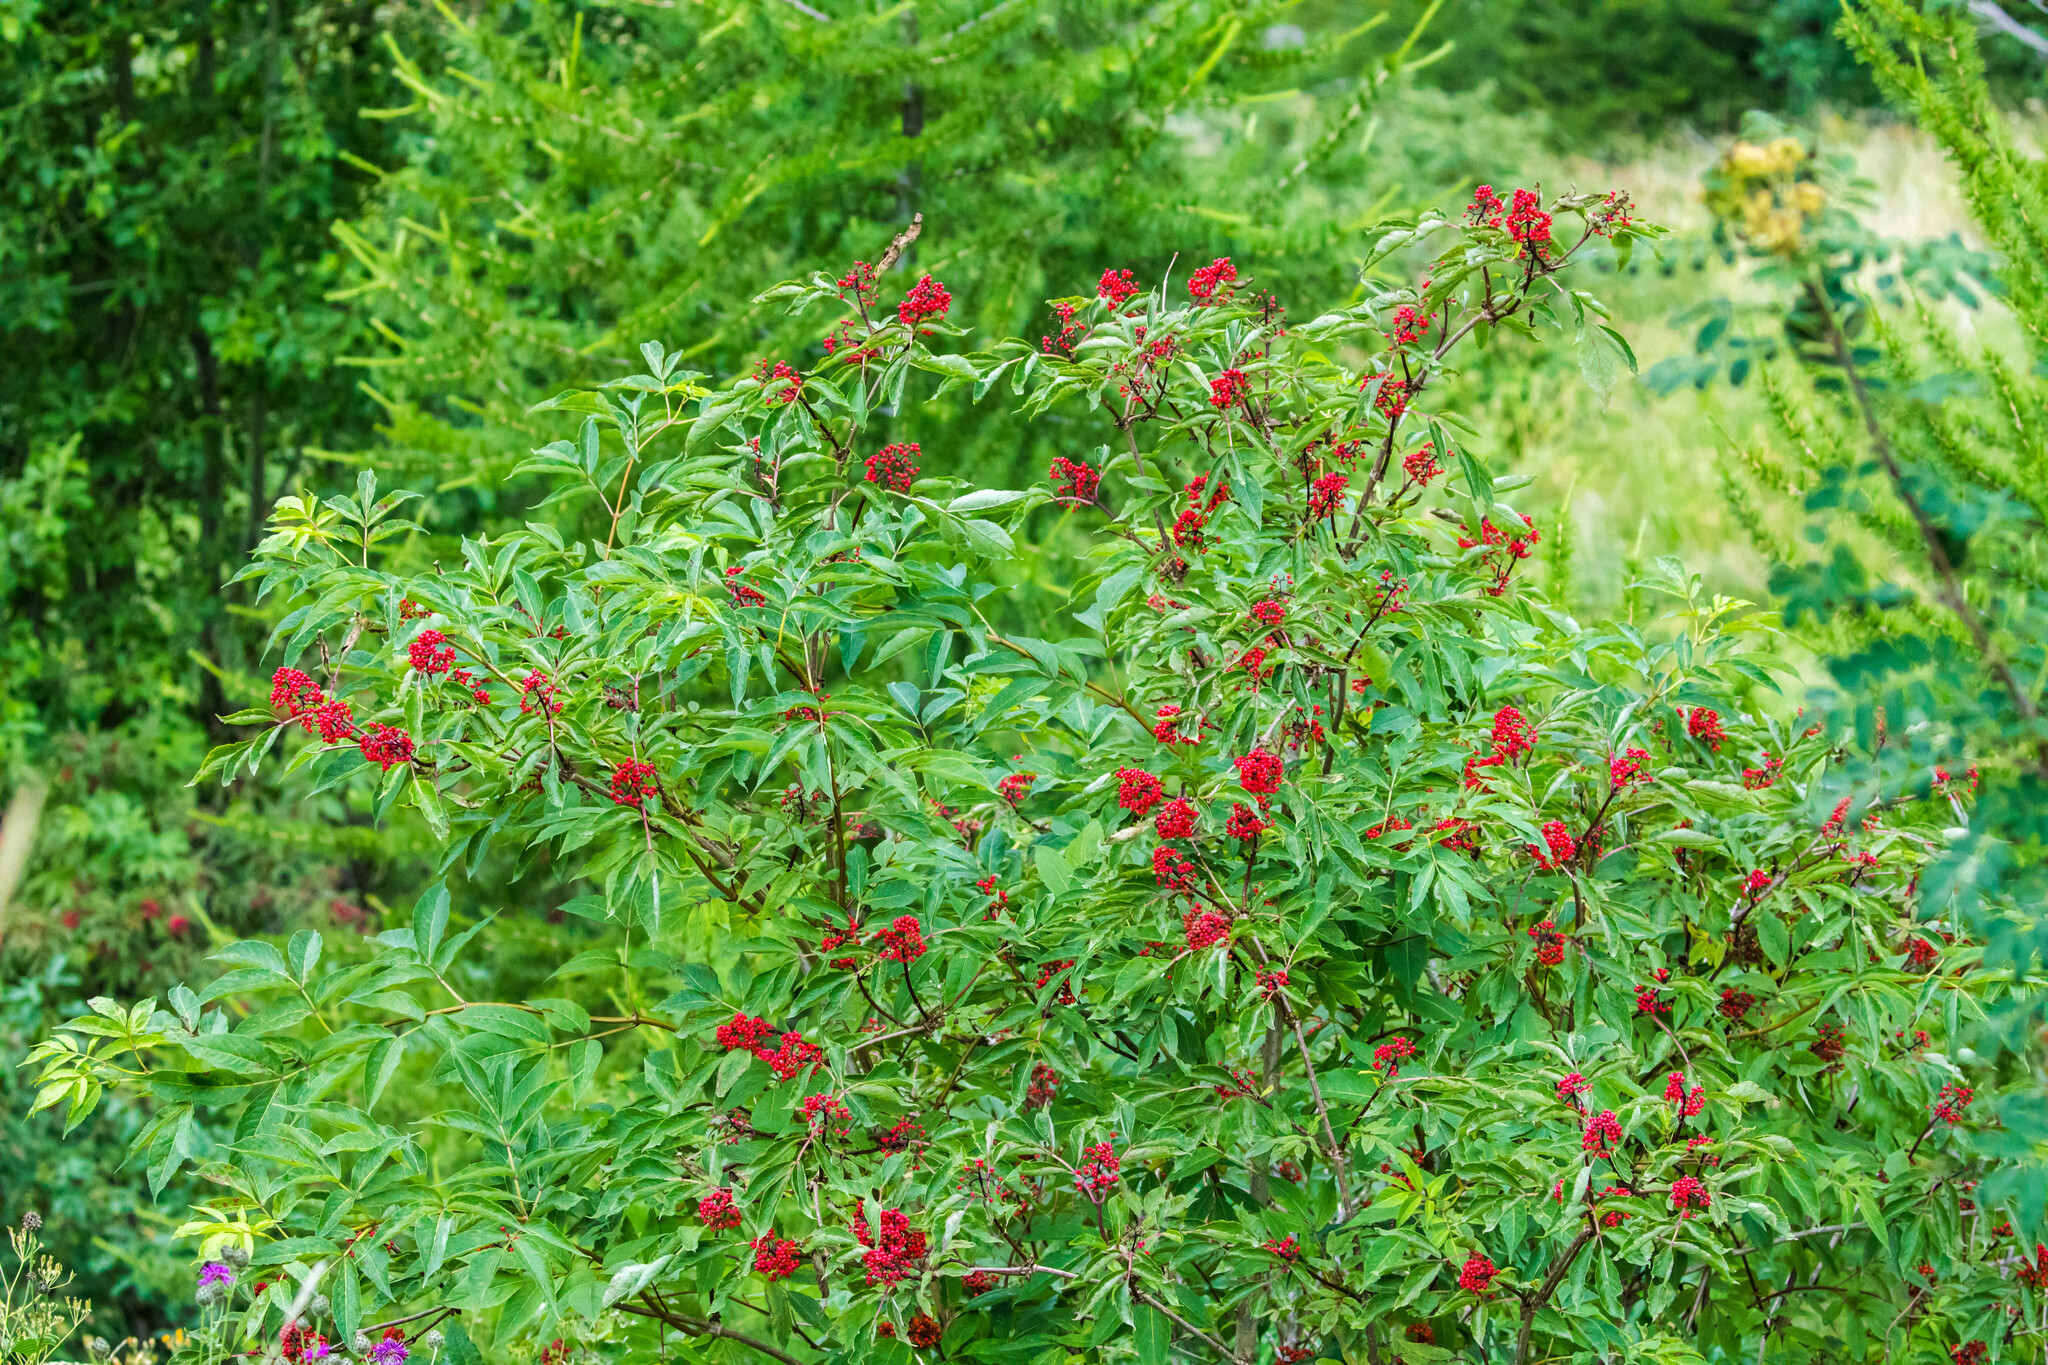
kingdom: Plantae
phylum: Tracheophyta
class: Magnoliopsida
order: Dipsacales
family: Viburnaceae
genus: Sambucus
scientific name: Sambucus racemosa
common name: Red-berried elder
